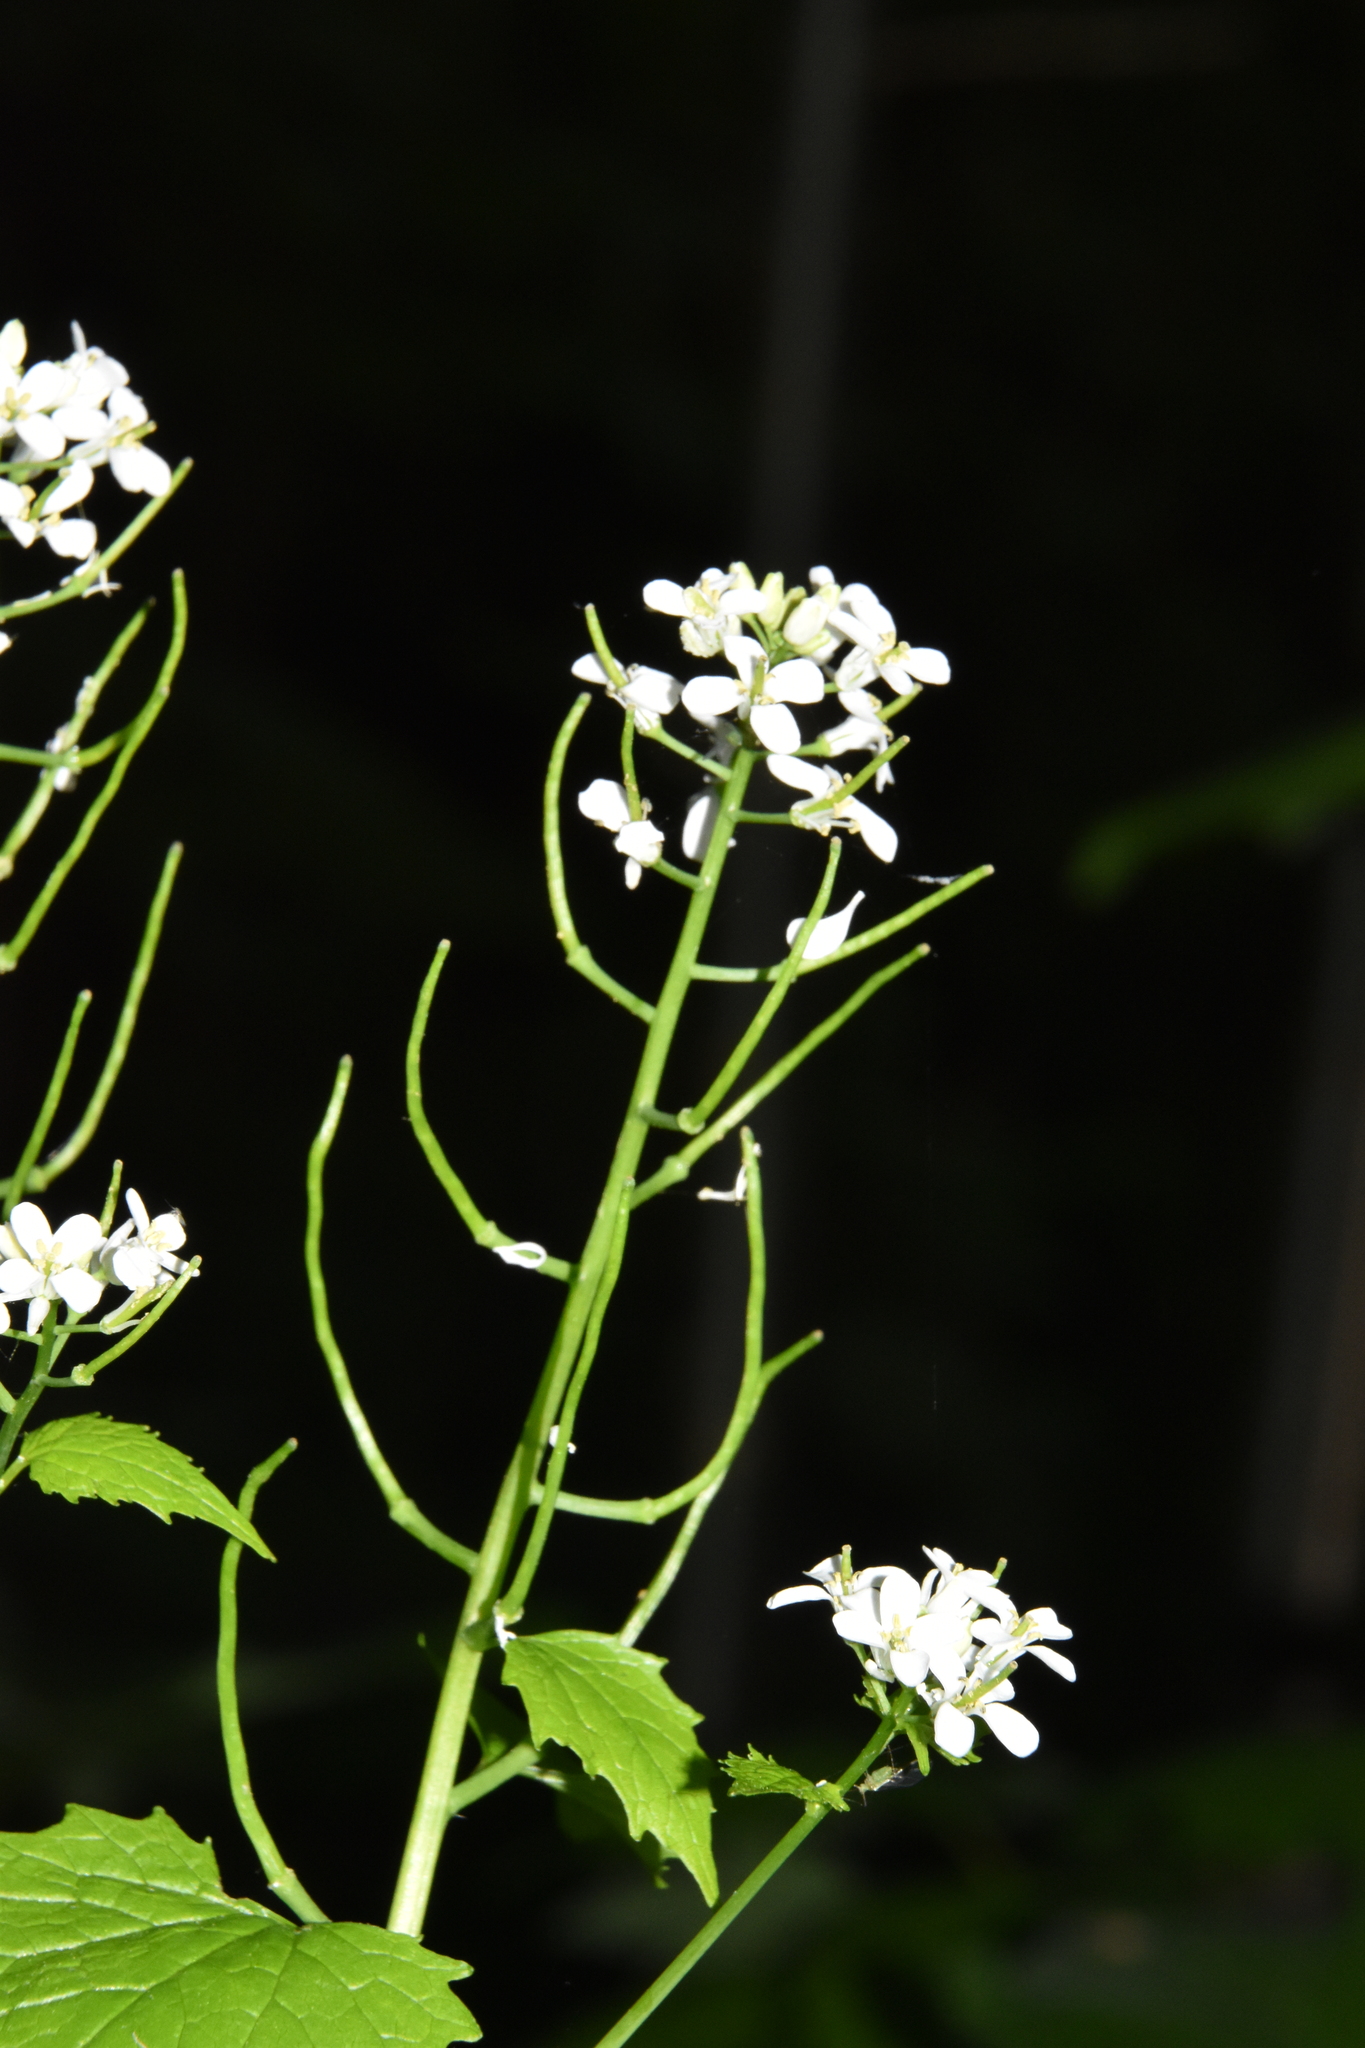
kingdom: Plantae
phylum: Tracheophyta
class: Magnoliopsida
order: Brassicales
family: Brassicaceae
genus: Alliaria
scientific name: Alliaria petiolata
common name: Garlic mustard
